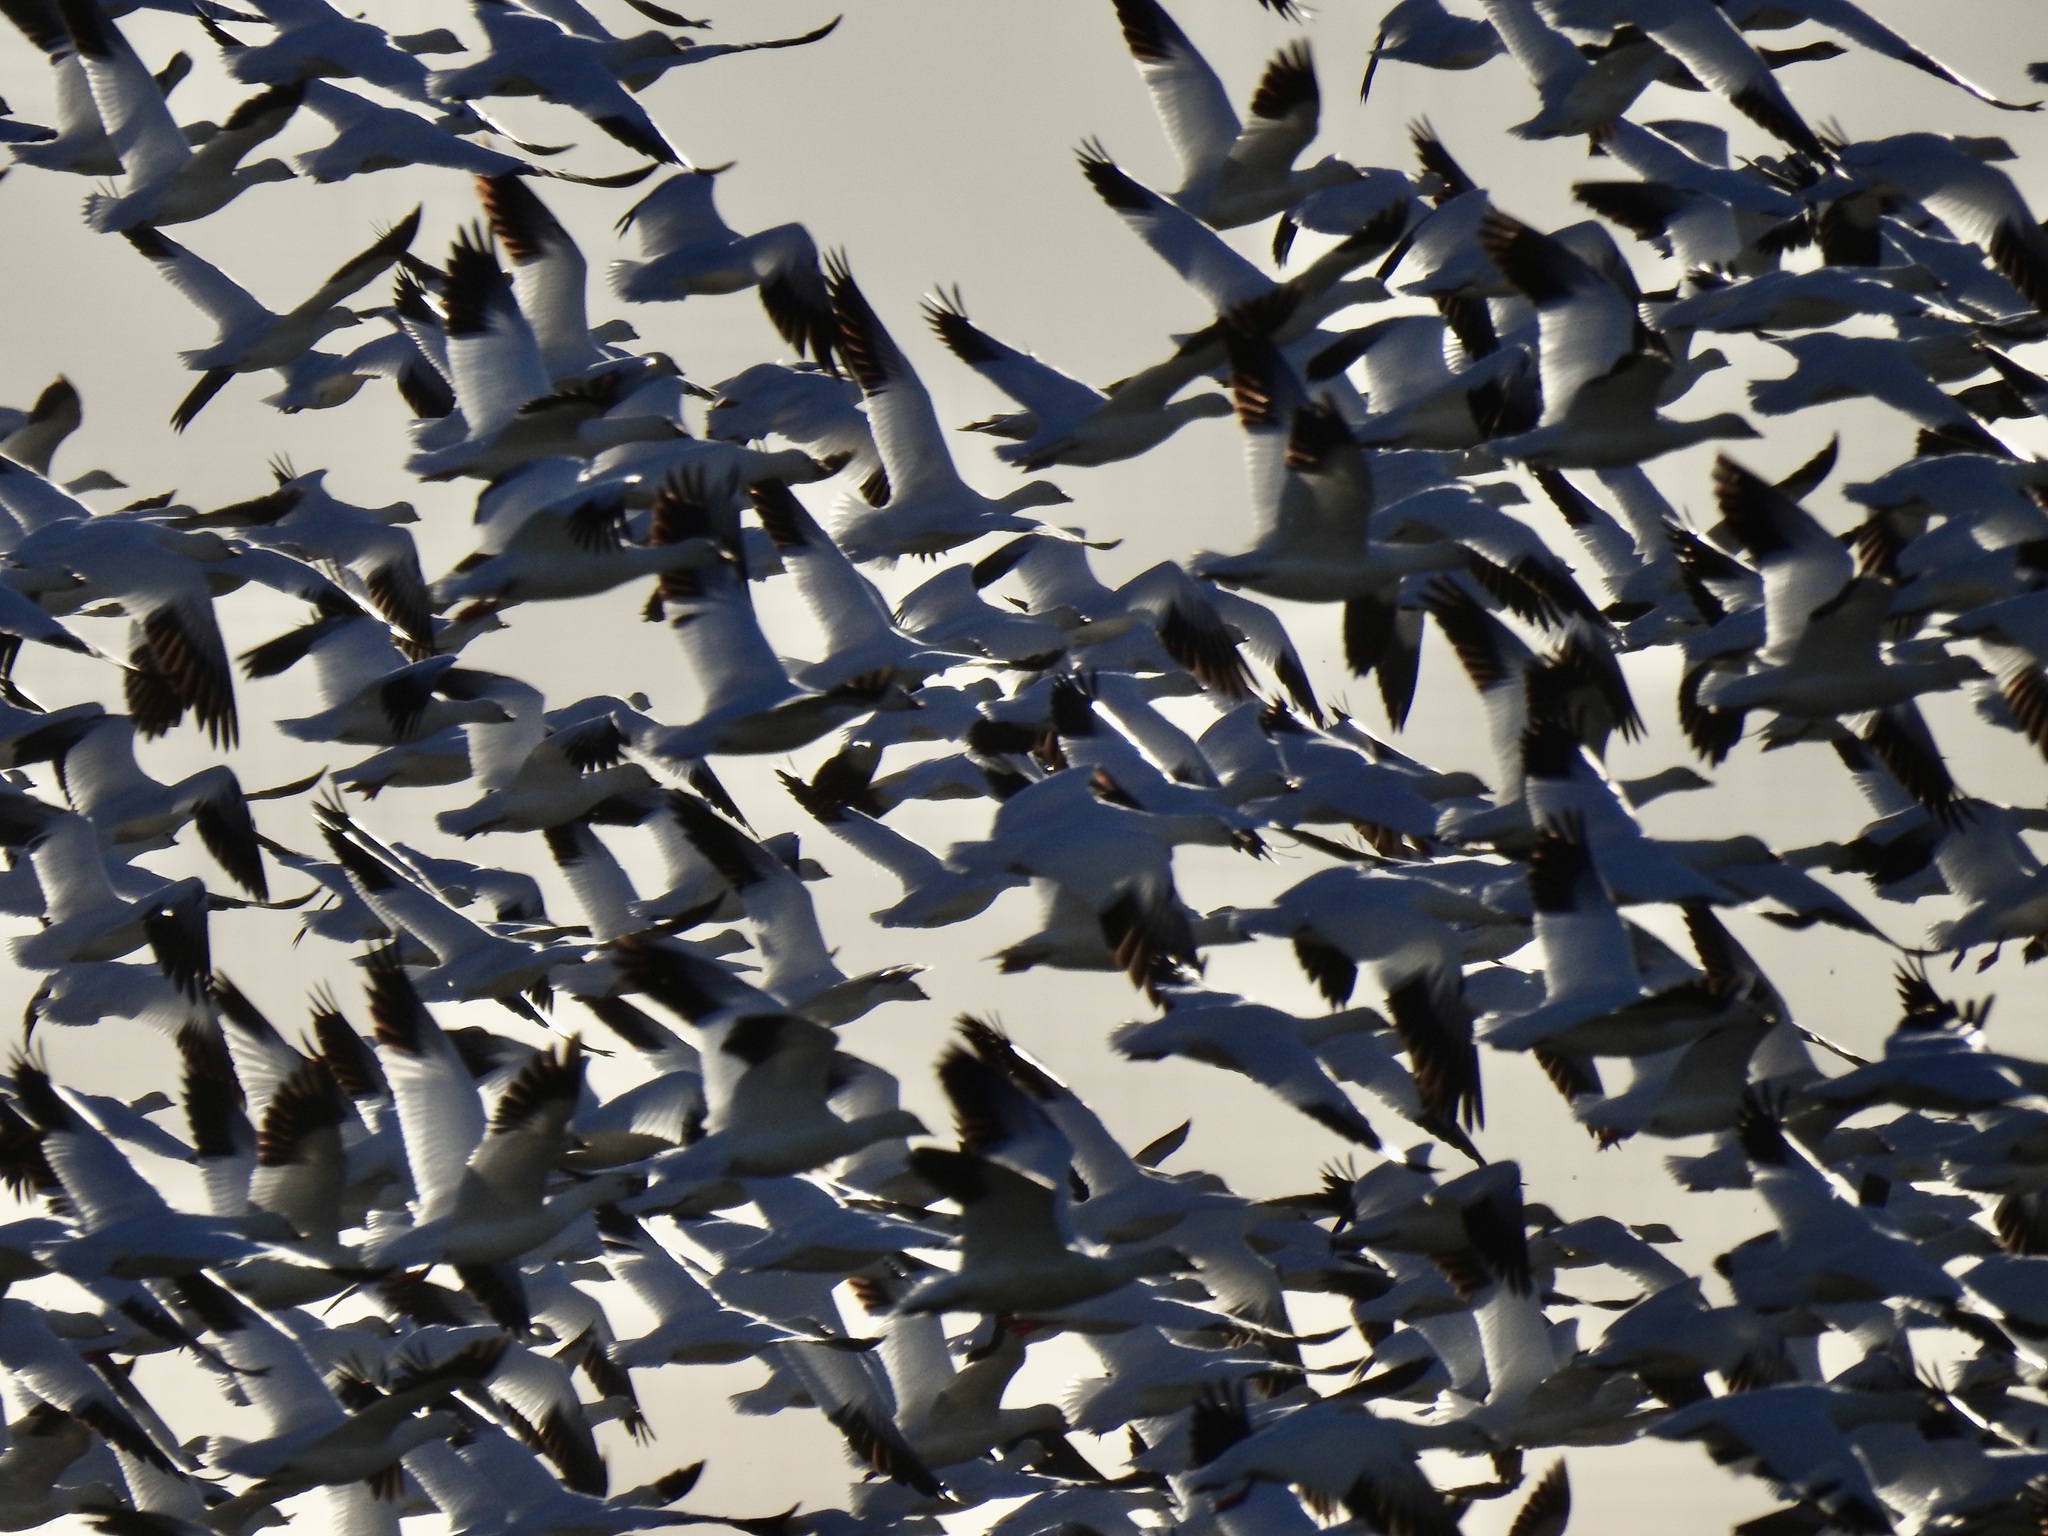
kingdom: Animalia
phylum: Chordata
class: Aves
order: Anseriformes
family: Anatidae
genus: Anser
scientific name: Anser caerulescens
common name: Snow goose
